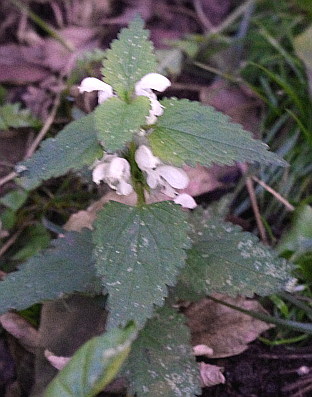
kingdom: Plantae
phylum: Tracheophyta
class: Magnoliopsida
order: Lamiales
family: Lamiaceae
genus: Lamium
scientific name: Lamium album
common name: White dead-nettle
